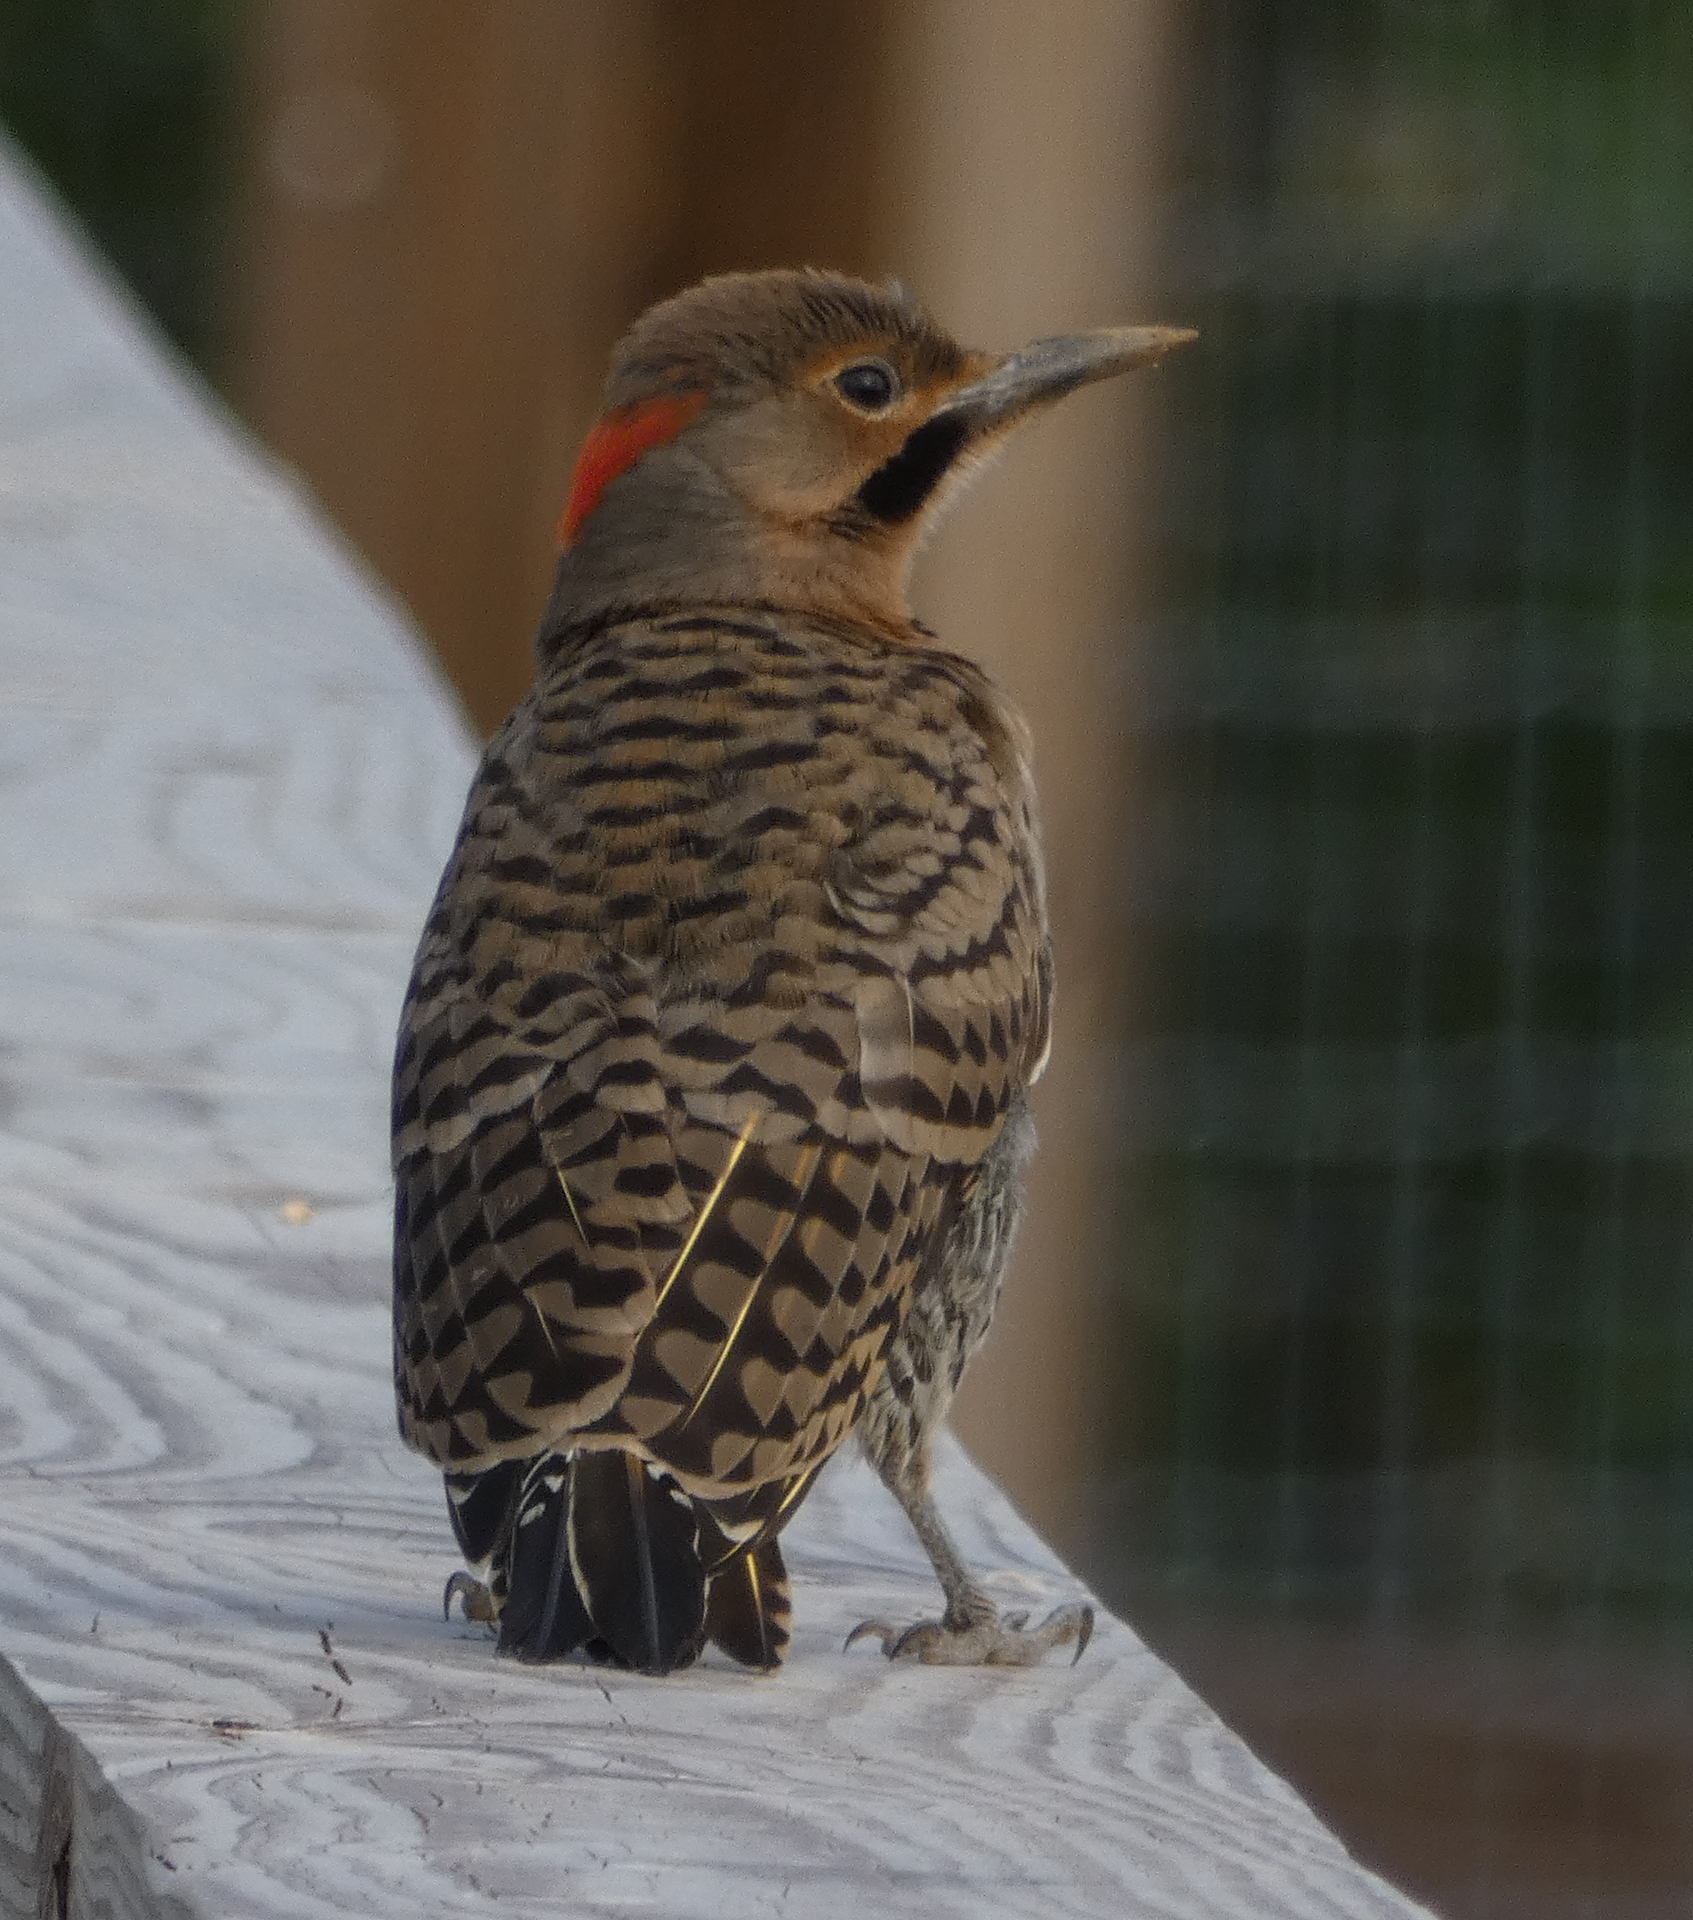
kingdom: Animalia
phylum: Chordata
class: Aves
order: Piciformes
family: Picidae
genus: Colaptes
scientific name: Colaptes auratus
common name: Northern flicker
